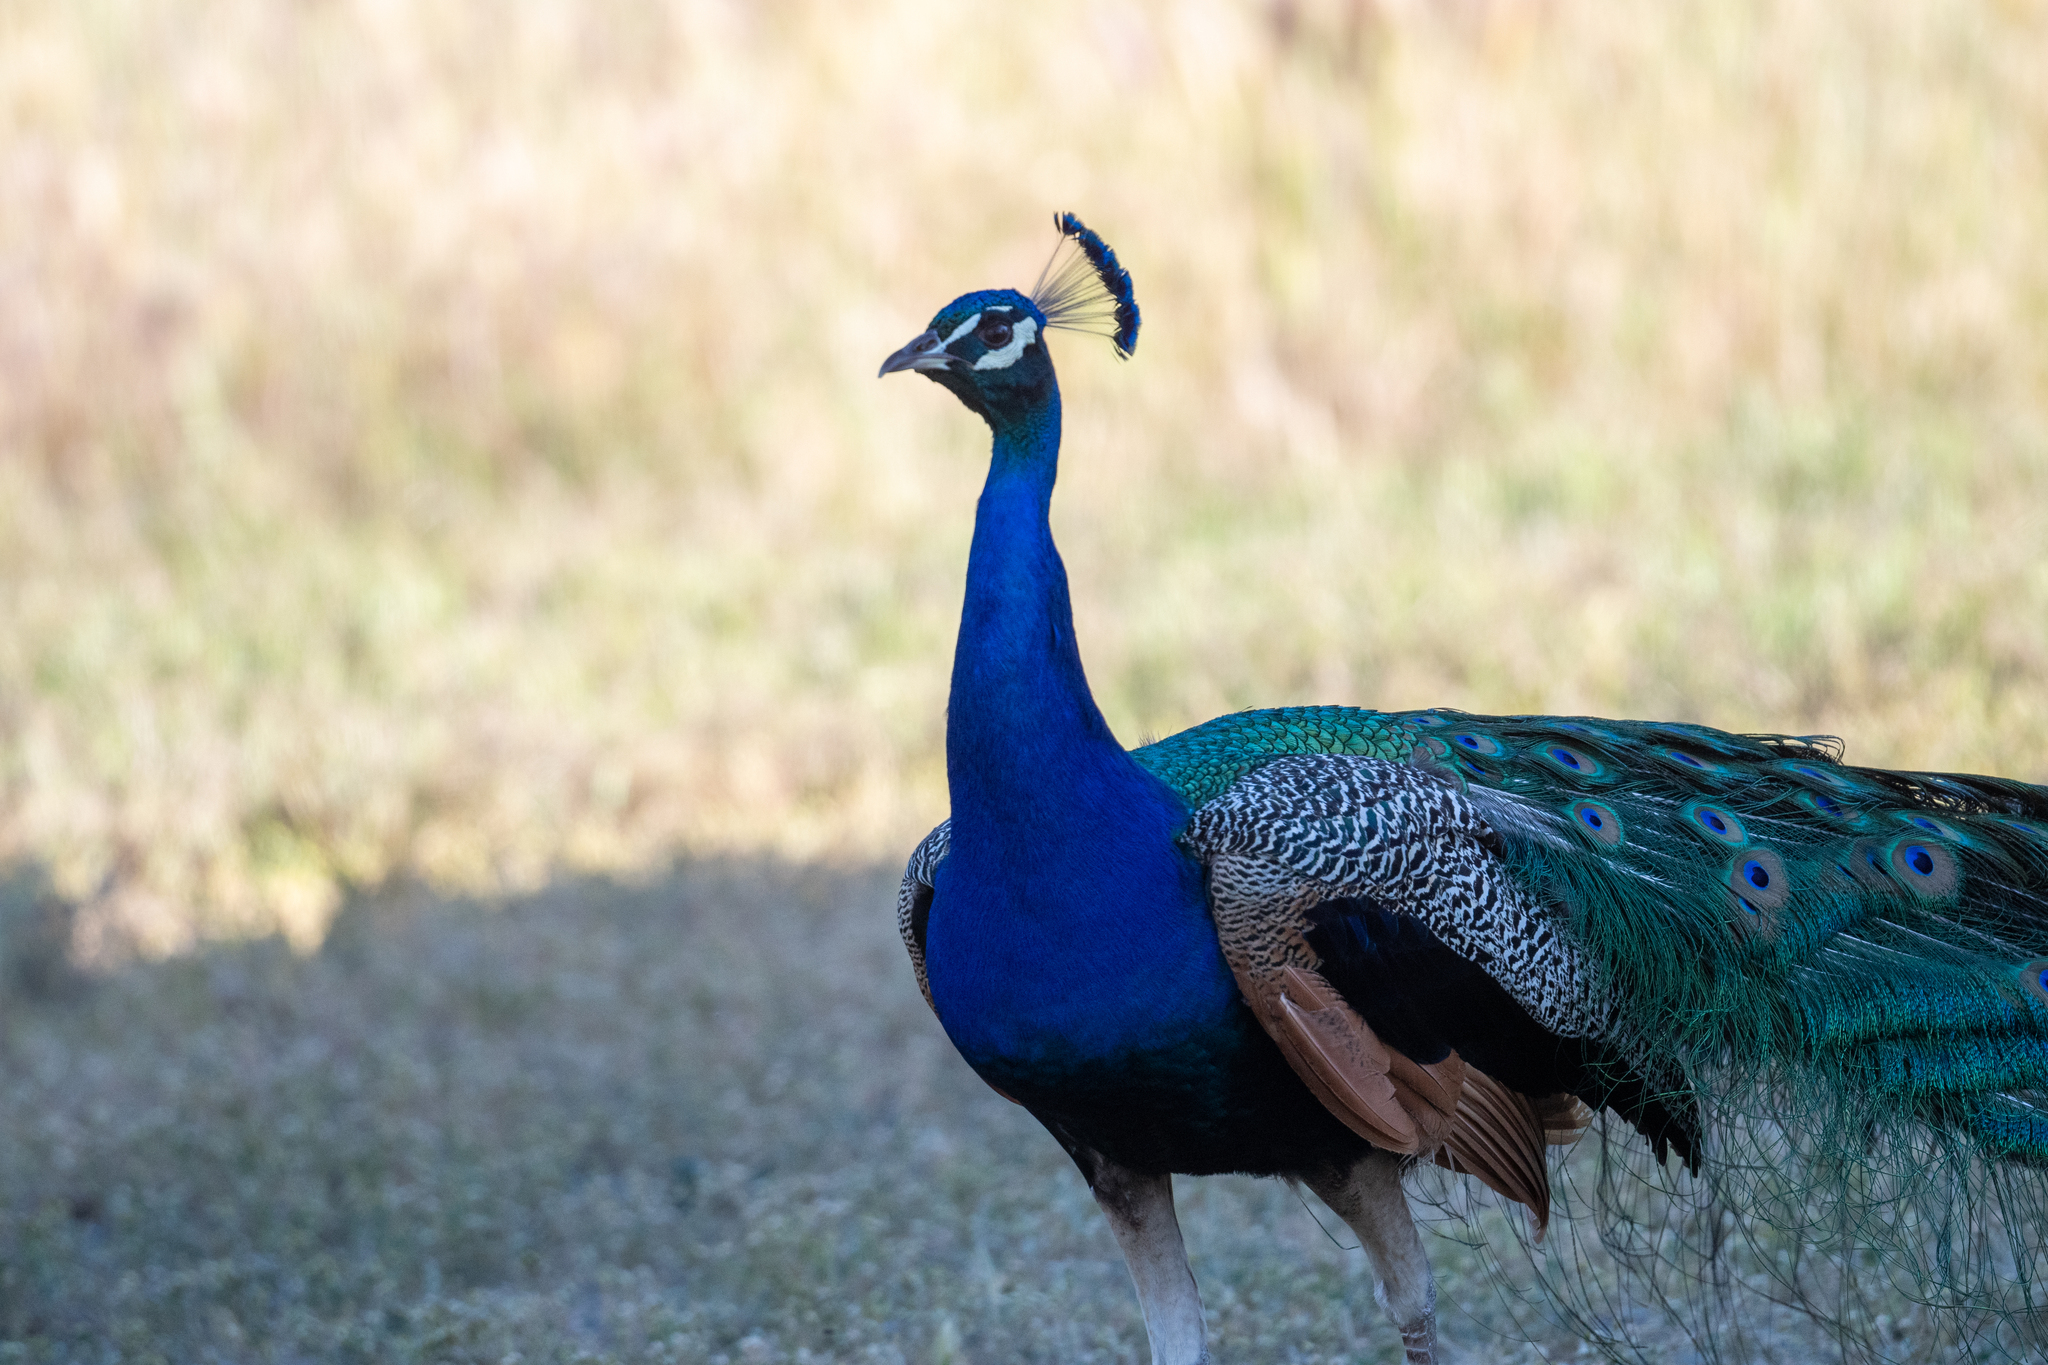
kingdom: Animalia
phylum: Chordata
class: Aves
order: Galliformes
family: Phasianidae
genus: Pavo
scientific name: Pavo cristatus
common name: Indian peafowl
